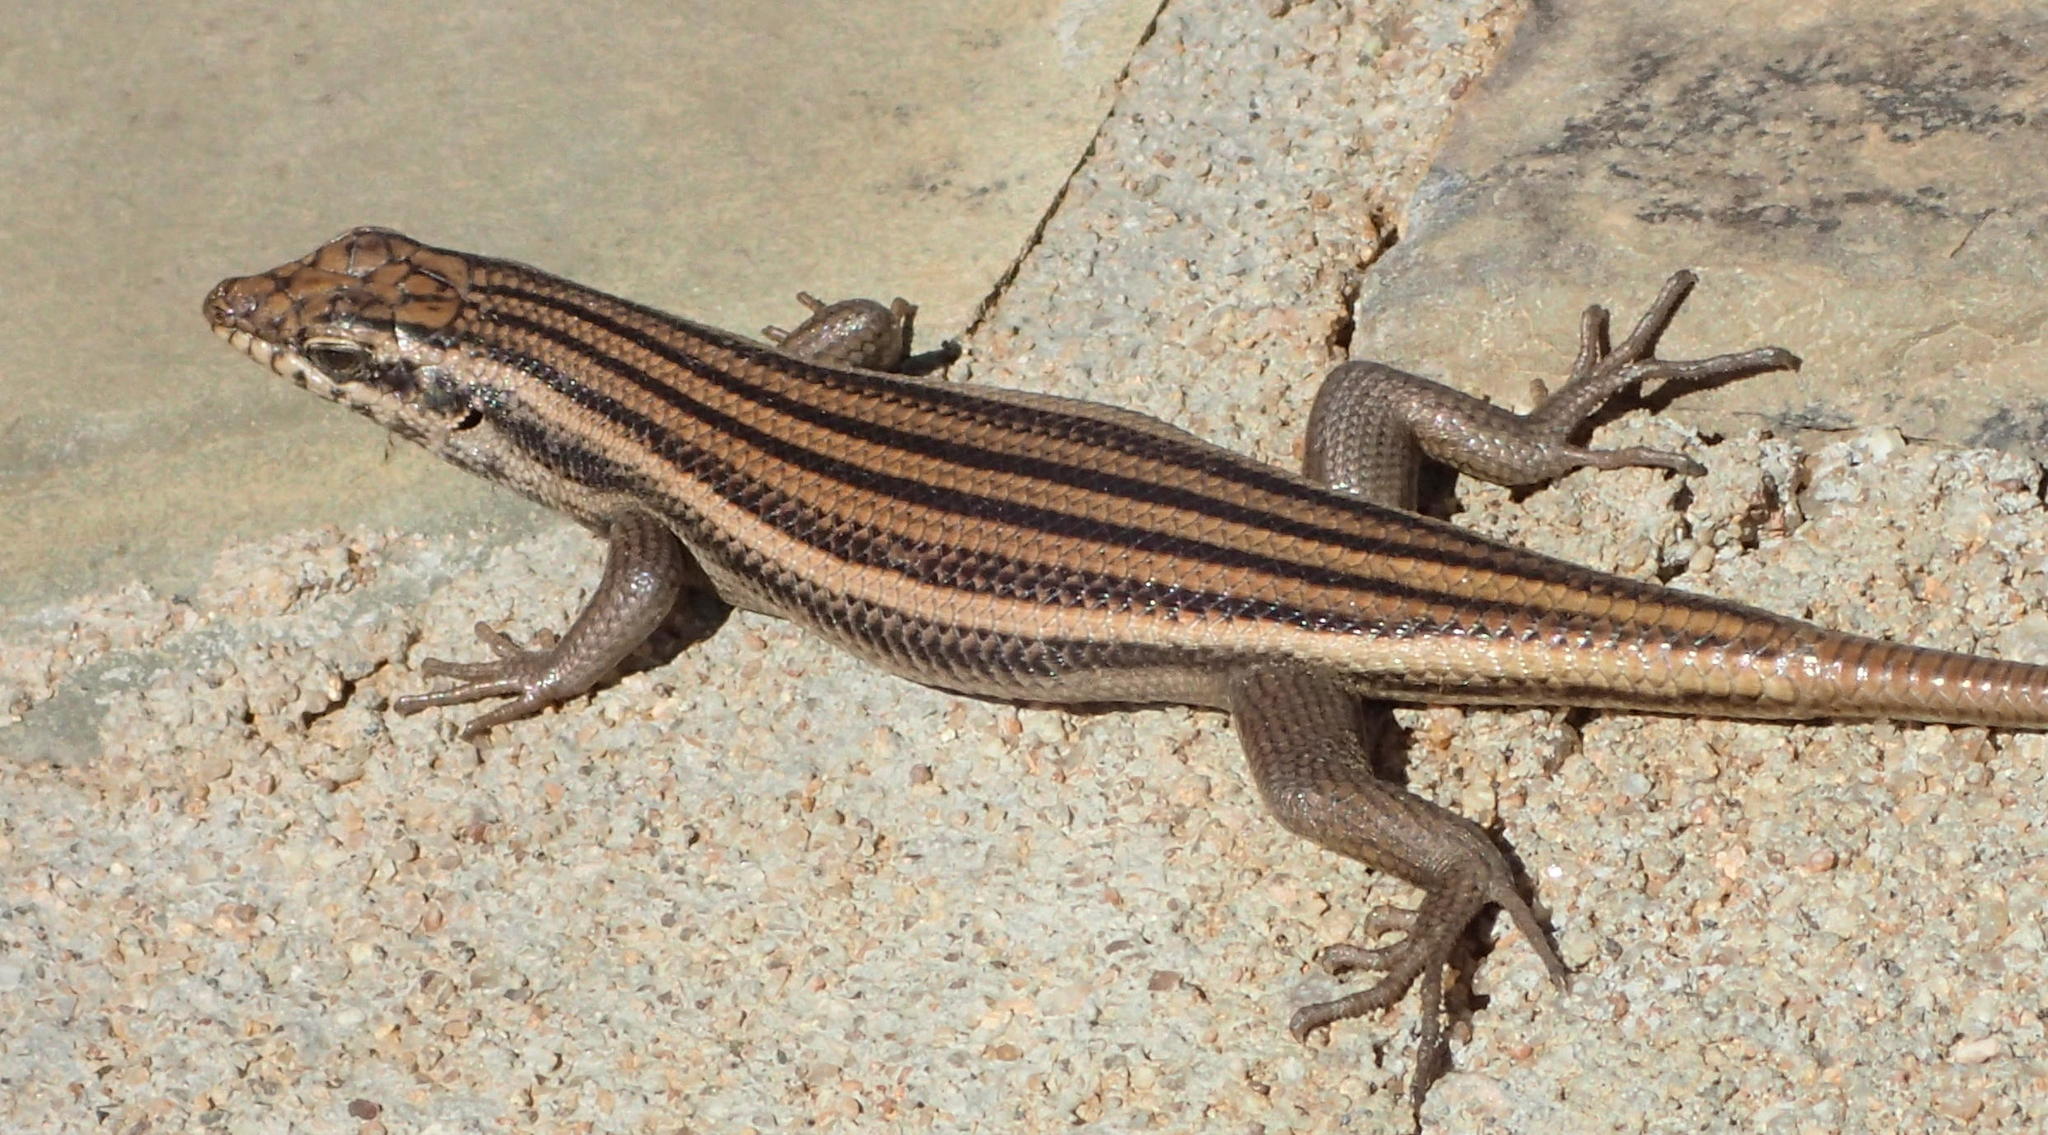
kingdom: Animalia
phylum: Chordata
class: Squamata
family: Scincidae
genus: Trachylepis
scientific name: Trachylepis sulcata
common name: Western rock skink
